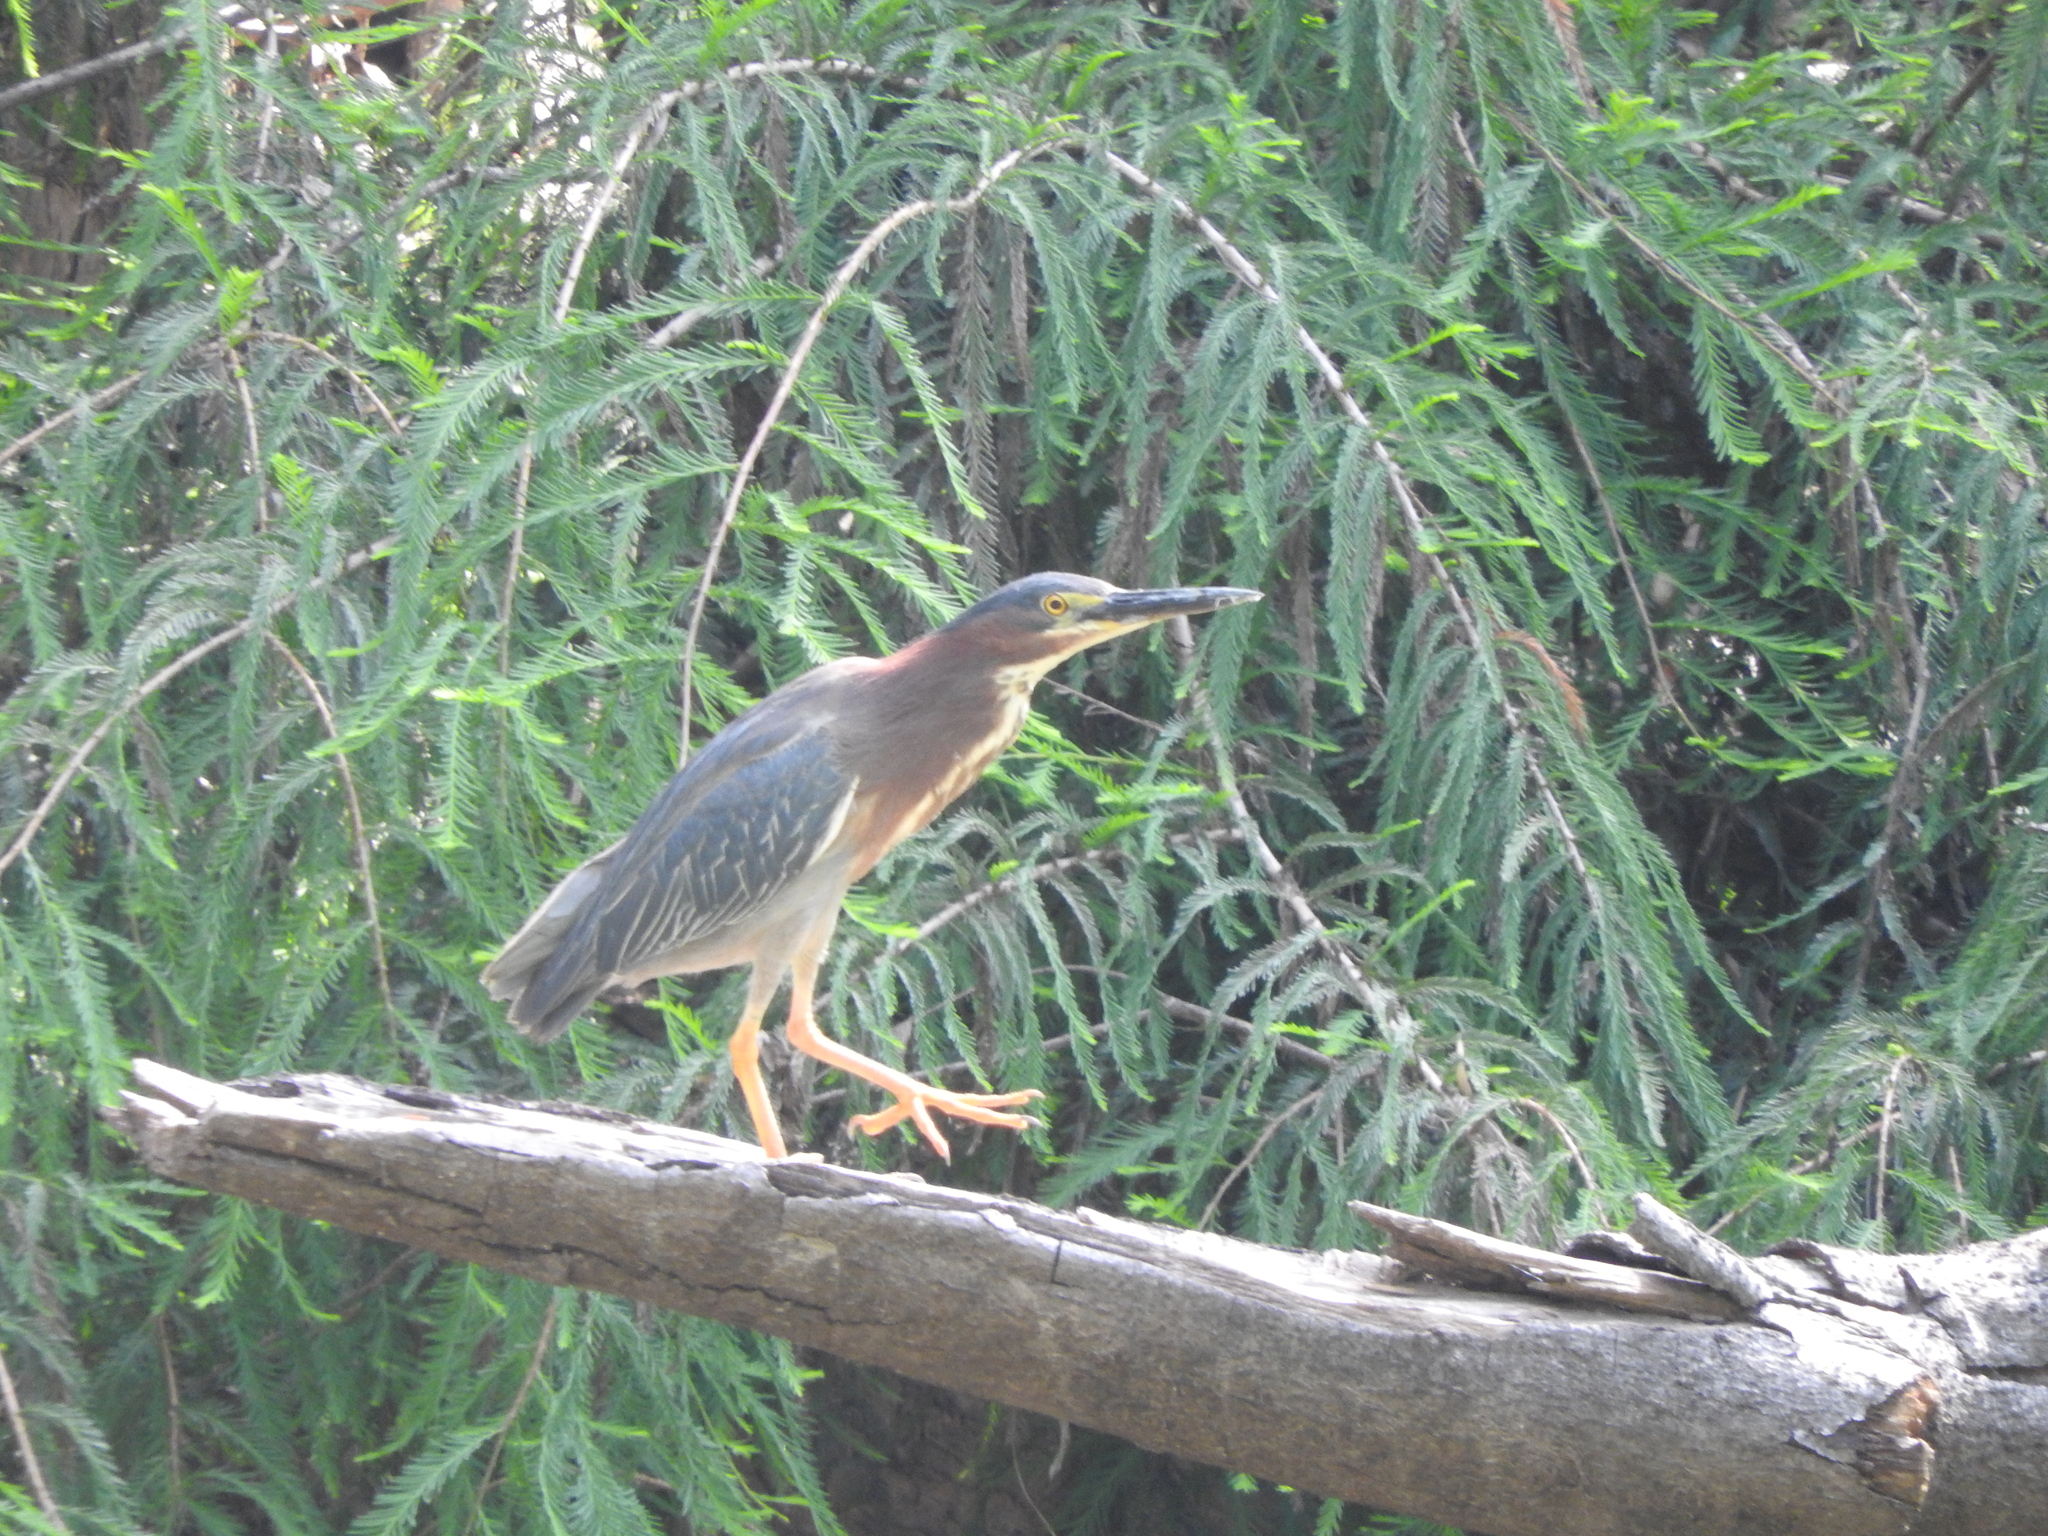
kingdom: Animalia
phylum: Chordata
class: Aves
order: Pelecaniformes
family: Ardeidae
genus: Butorides
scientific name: Butorides virescens
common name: Green heron
